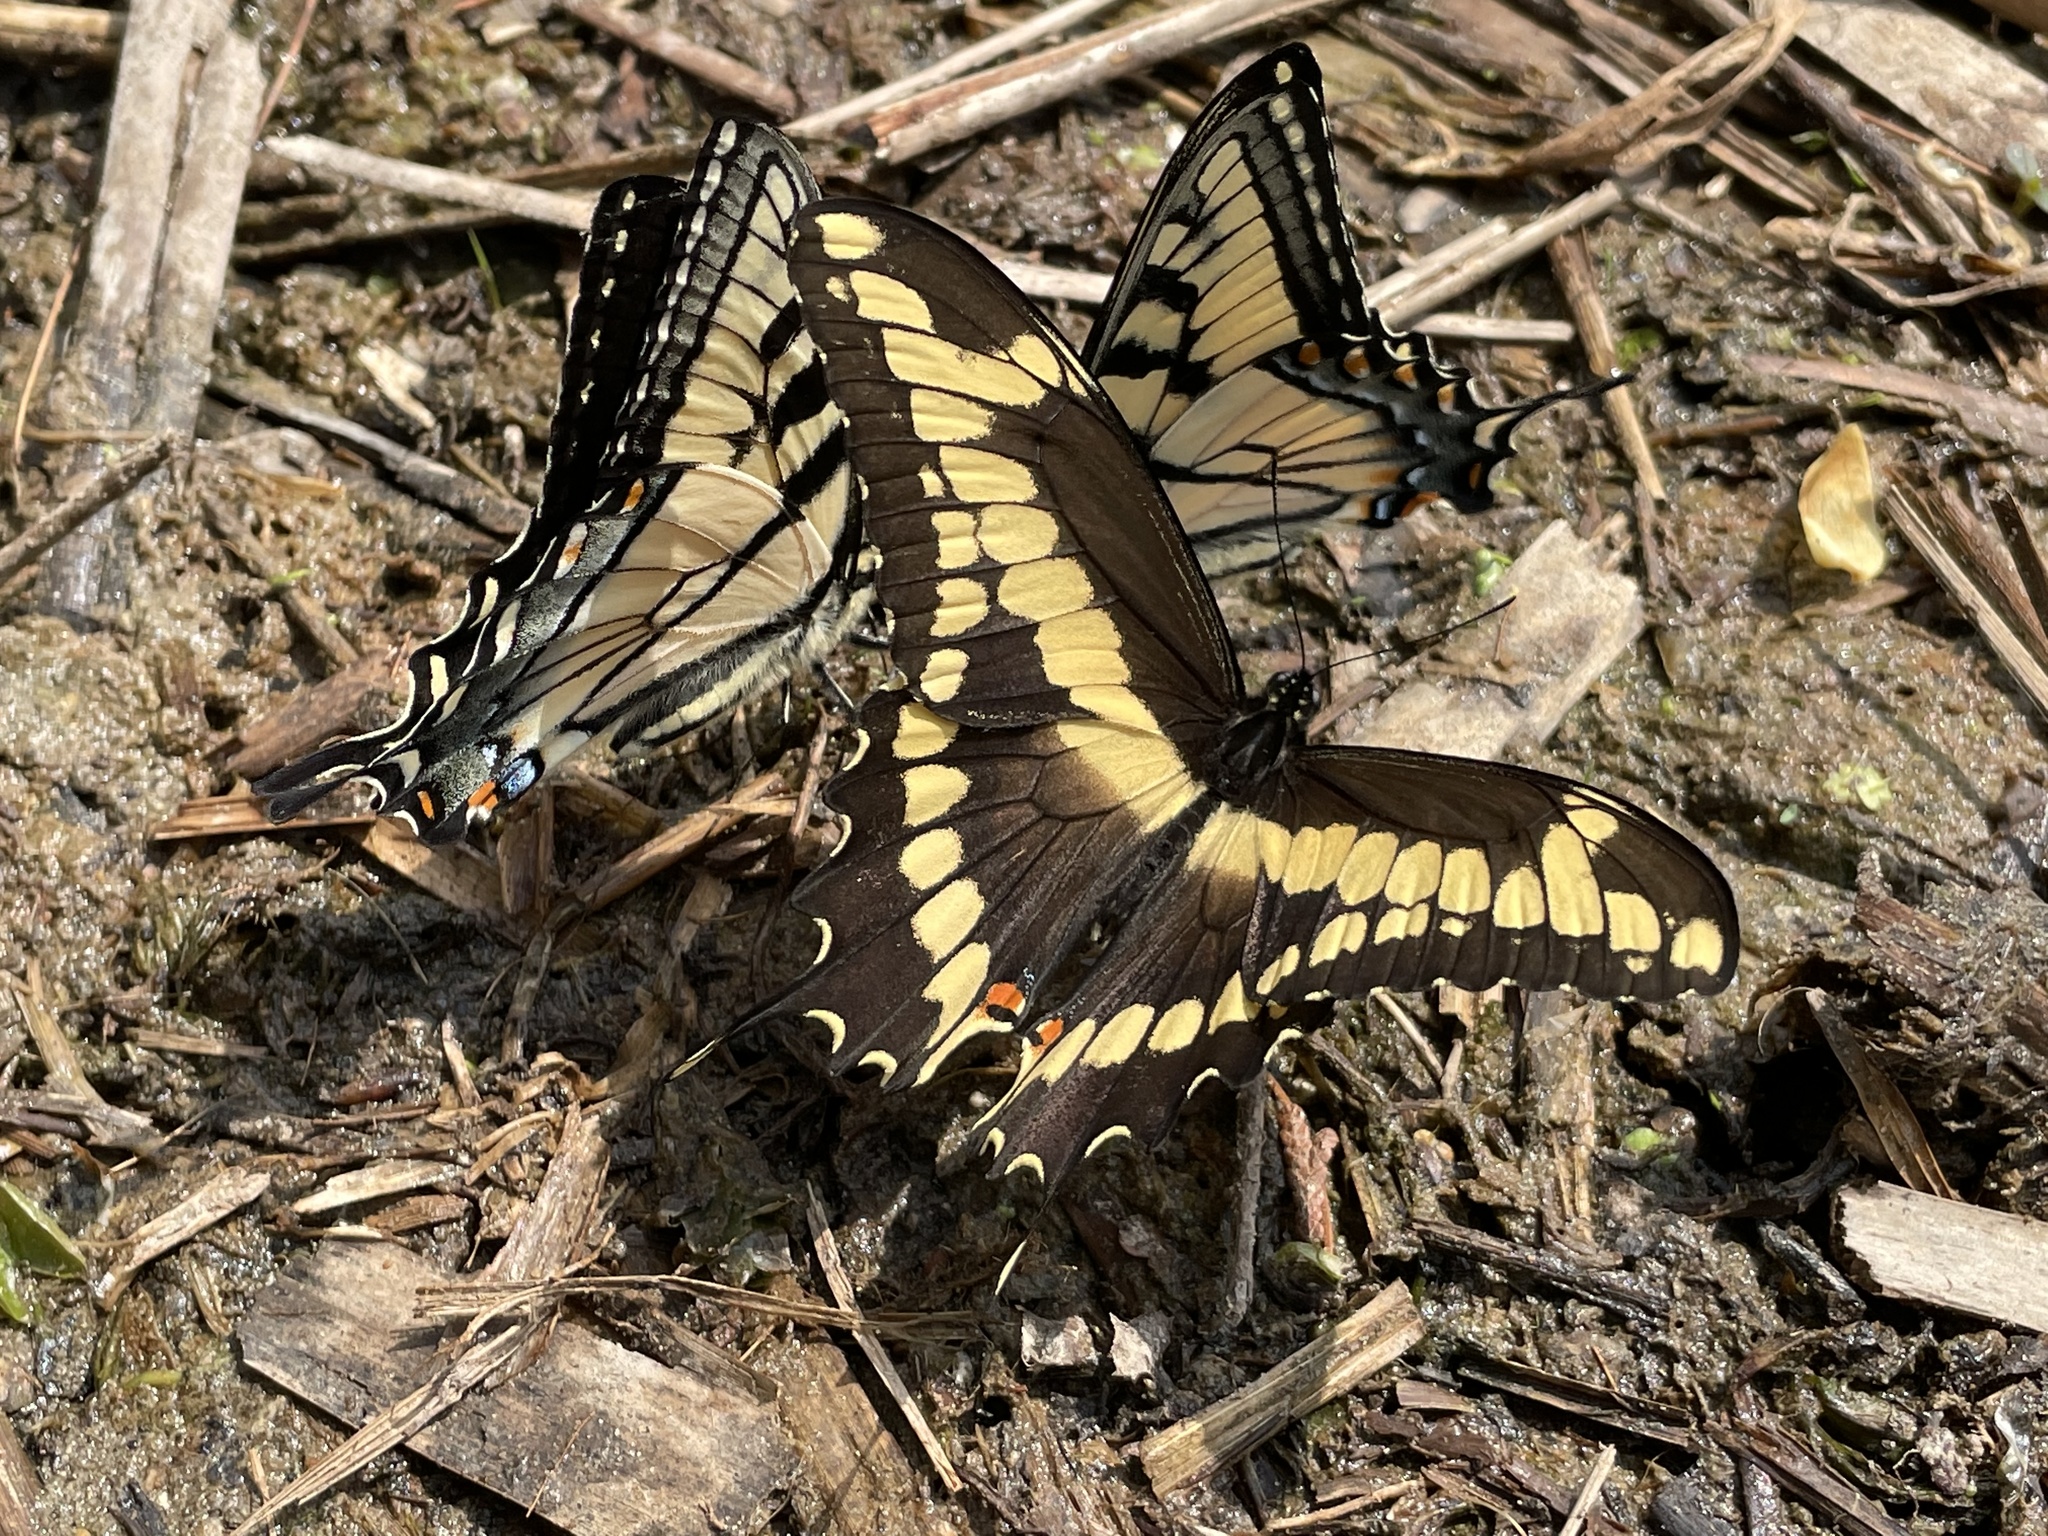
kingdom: Animalia
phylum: Arthropoda
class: Insecta
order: Lepidoptera
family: Papilionidae
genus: Papilio
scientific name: Papilio cresphontes
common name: Giant swallowtail
